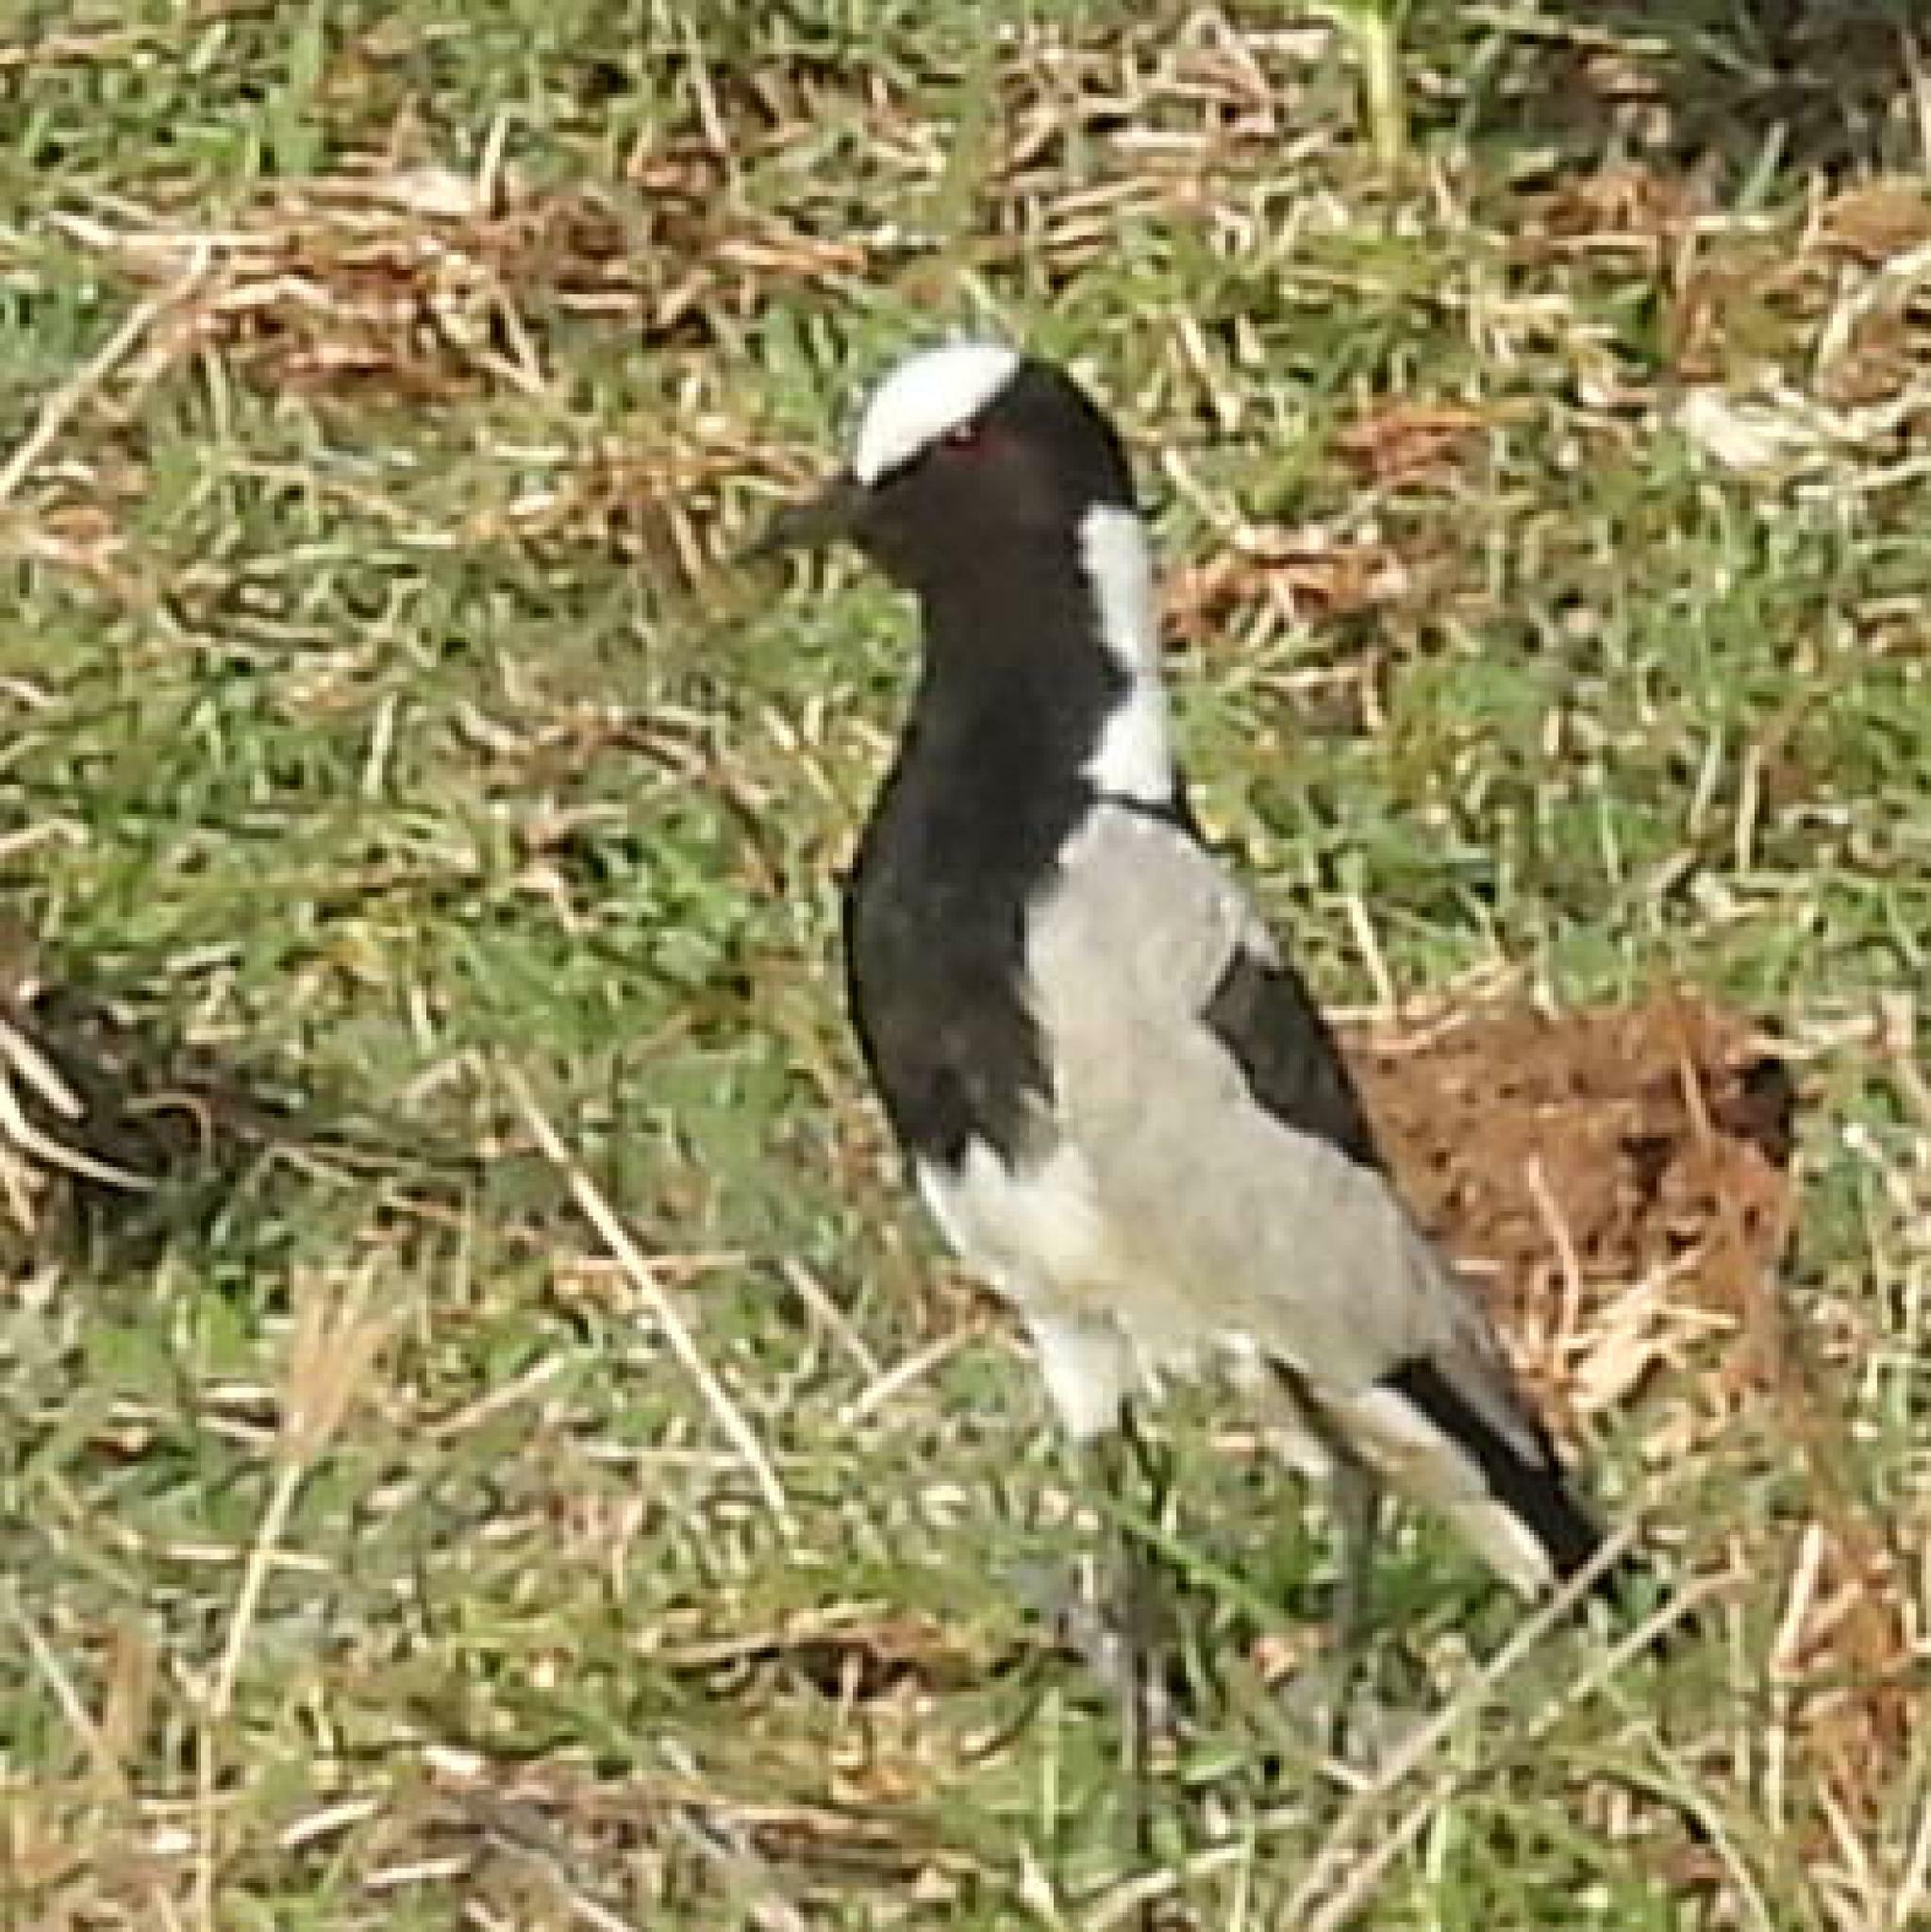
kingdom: Animalia
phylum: Chordata
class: Aves
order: Charadriiformes
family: Charadriidae
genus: Vanellus
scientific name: Vanellus armatus
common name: Blacksmith lapwing
